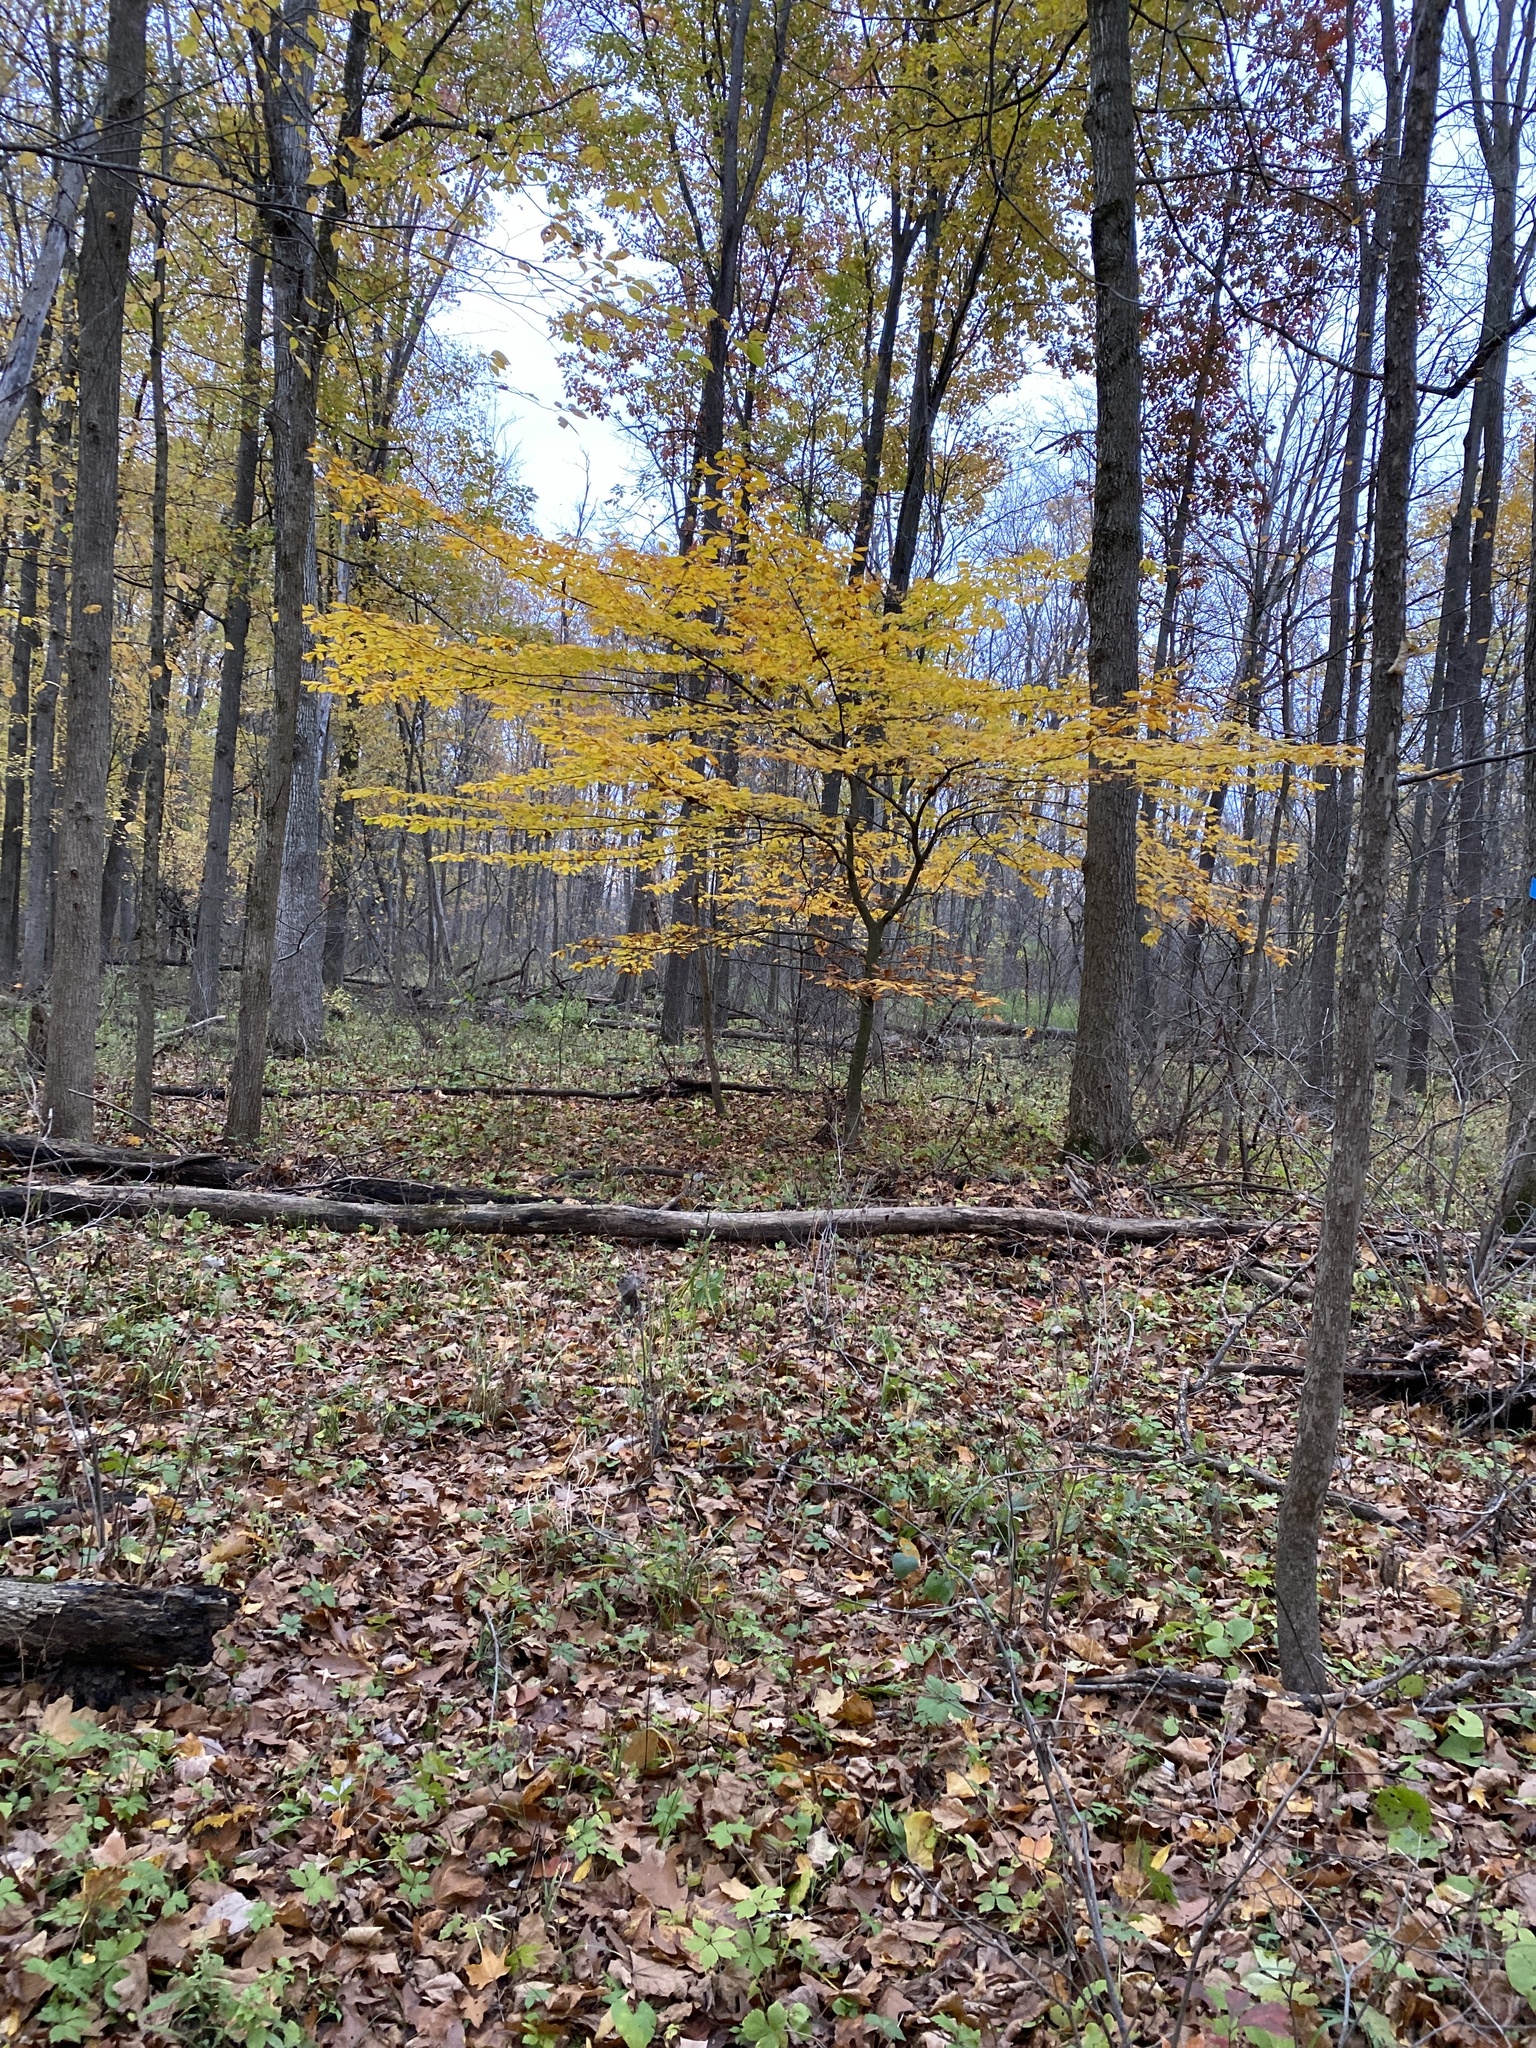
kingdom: Plantae
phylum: Tracheophyta
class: Magnoliopsida
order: Fagales
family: Fagaceae
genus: Fagus
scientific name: Fagus grandifolia
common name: American beech
